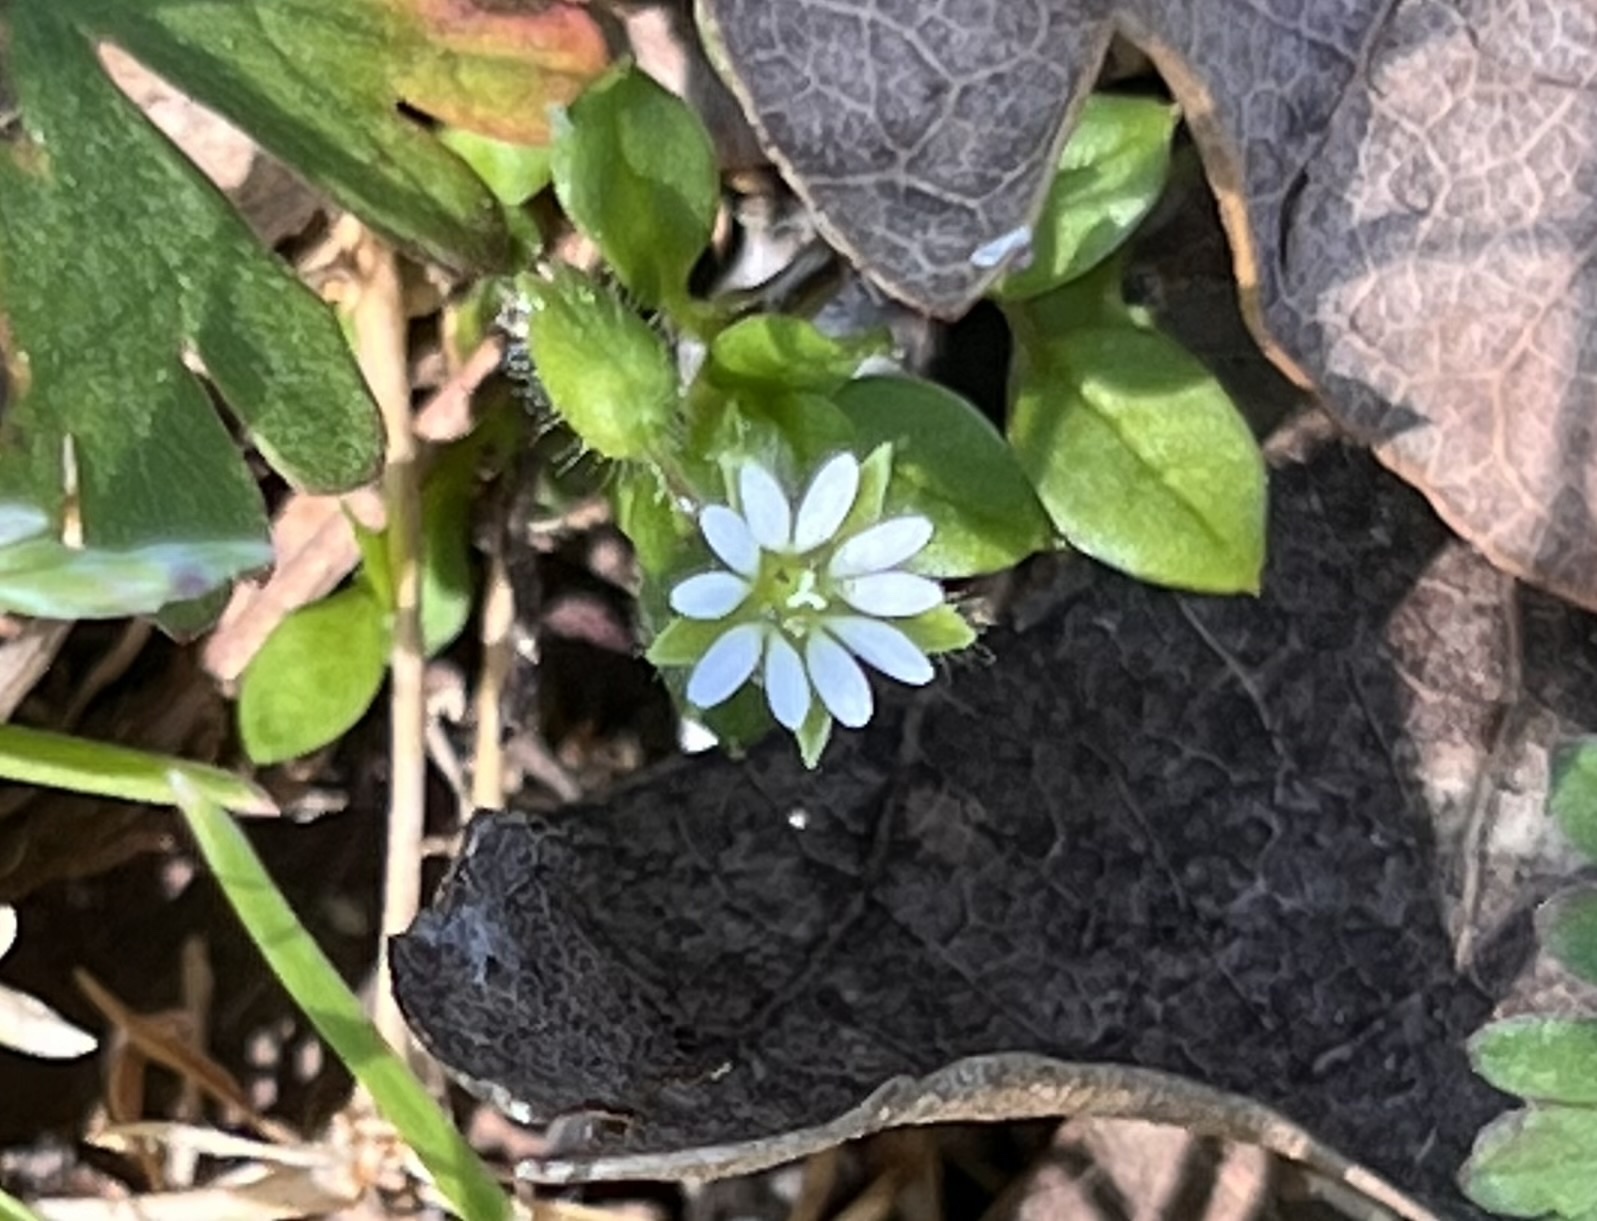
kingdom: Plantae
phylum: Tracheophyta
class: Magnoliopsida
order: Caryophyllales
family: Caryophyllaceae
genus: Stellaria
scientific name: Stellaria media
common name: Common chickweed
